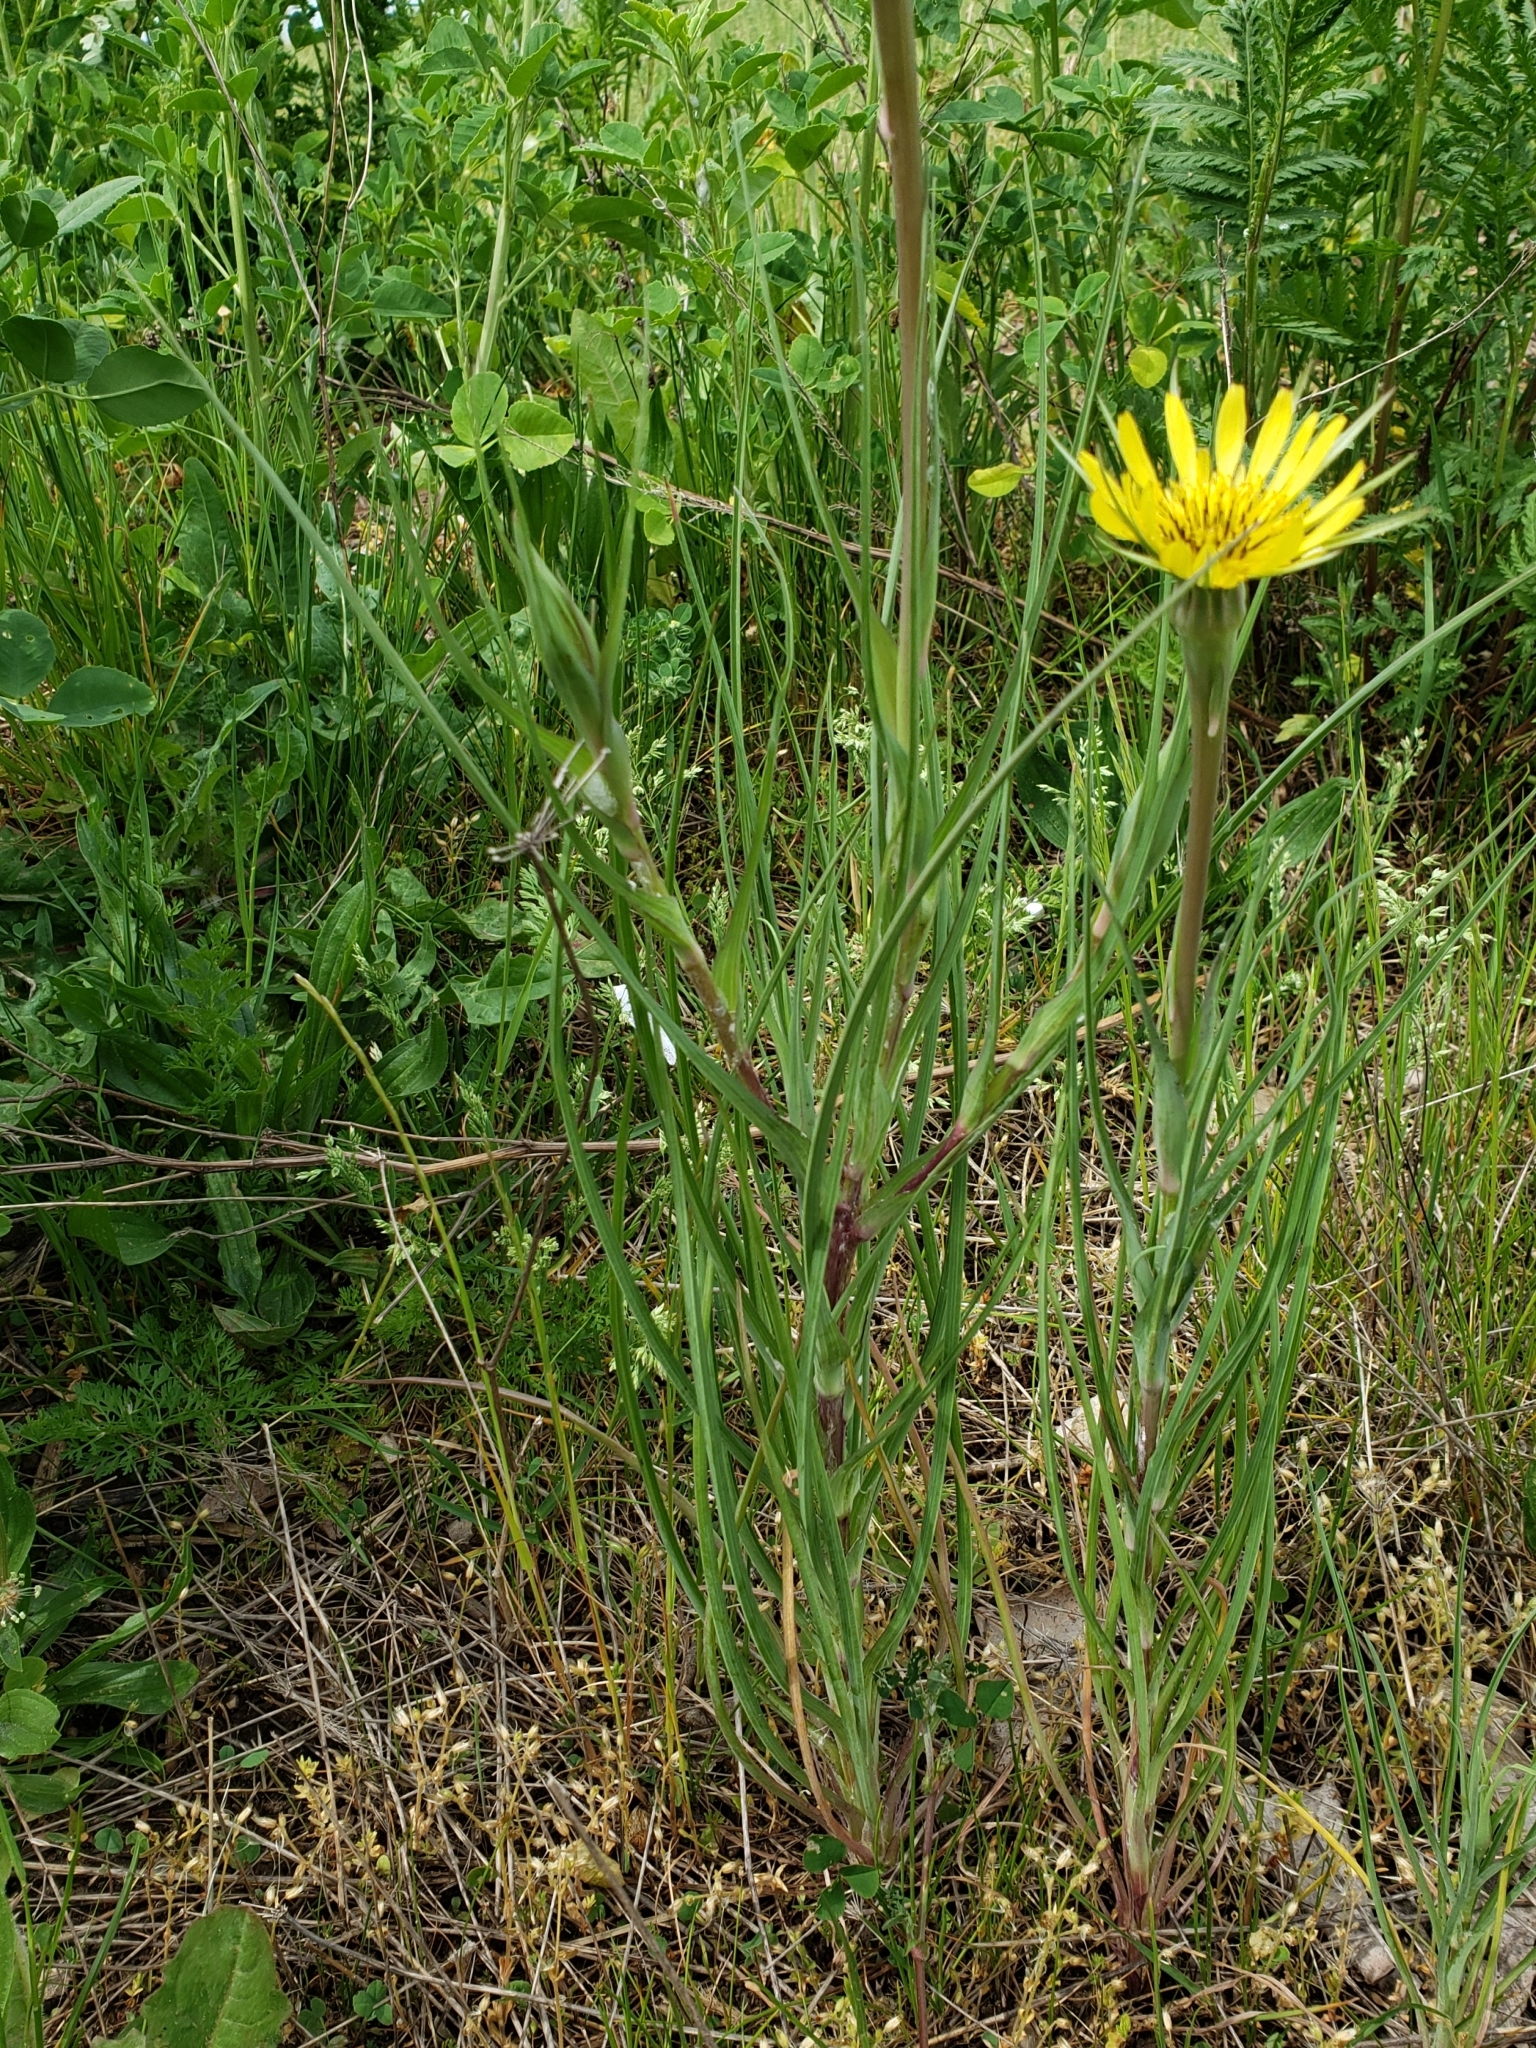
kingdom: Plantae
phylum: Tracheophyta
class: Magnoliopsida
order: Asterales
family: Asteraceae
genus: Tragopogon
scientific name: Tragopogon dubius
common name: Yellow salsify
